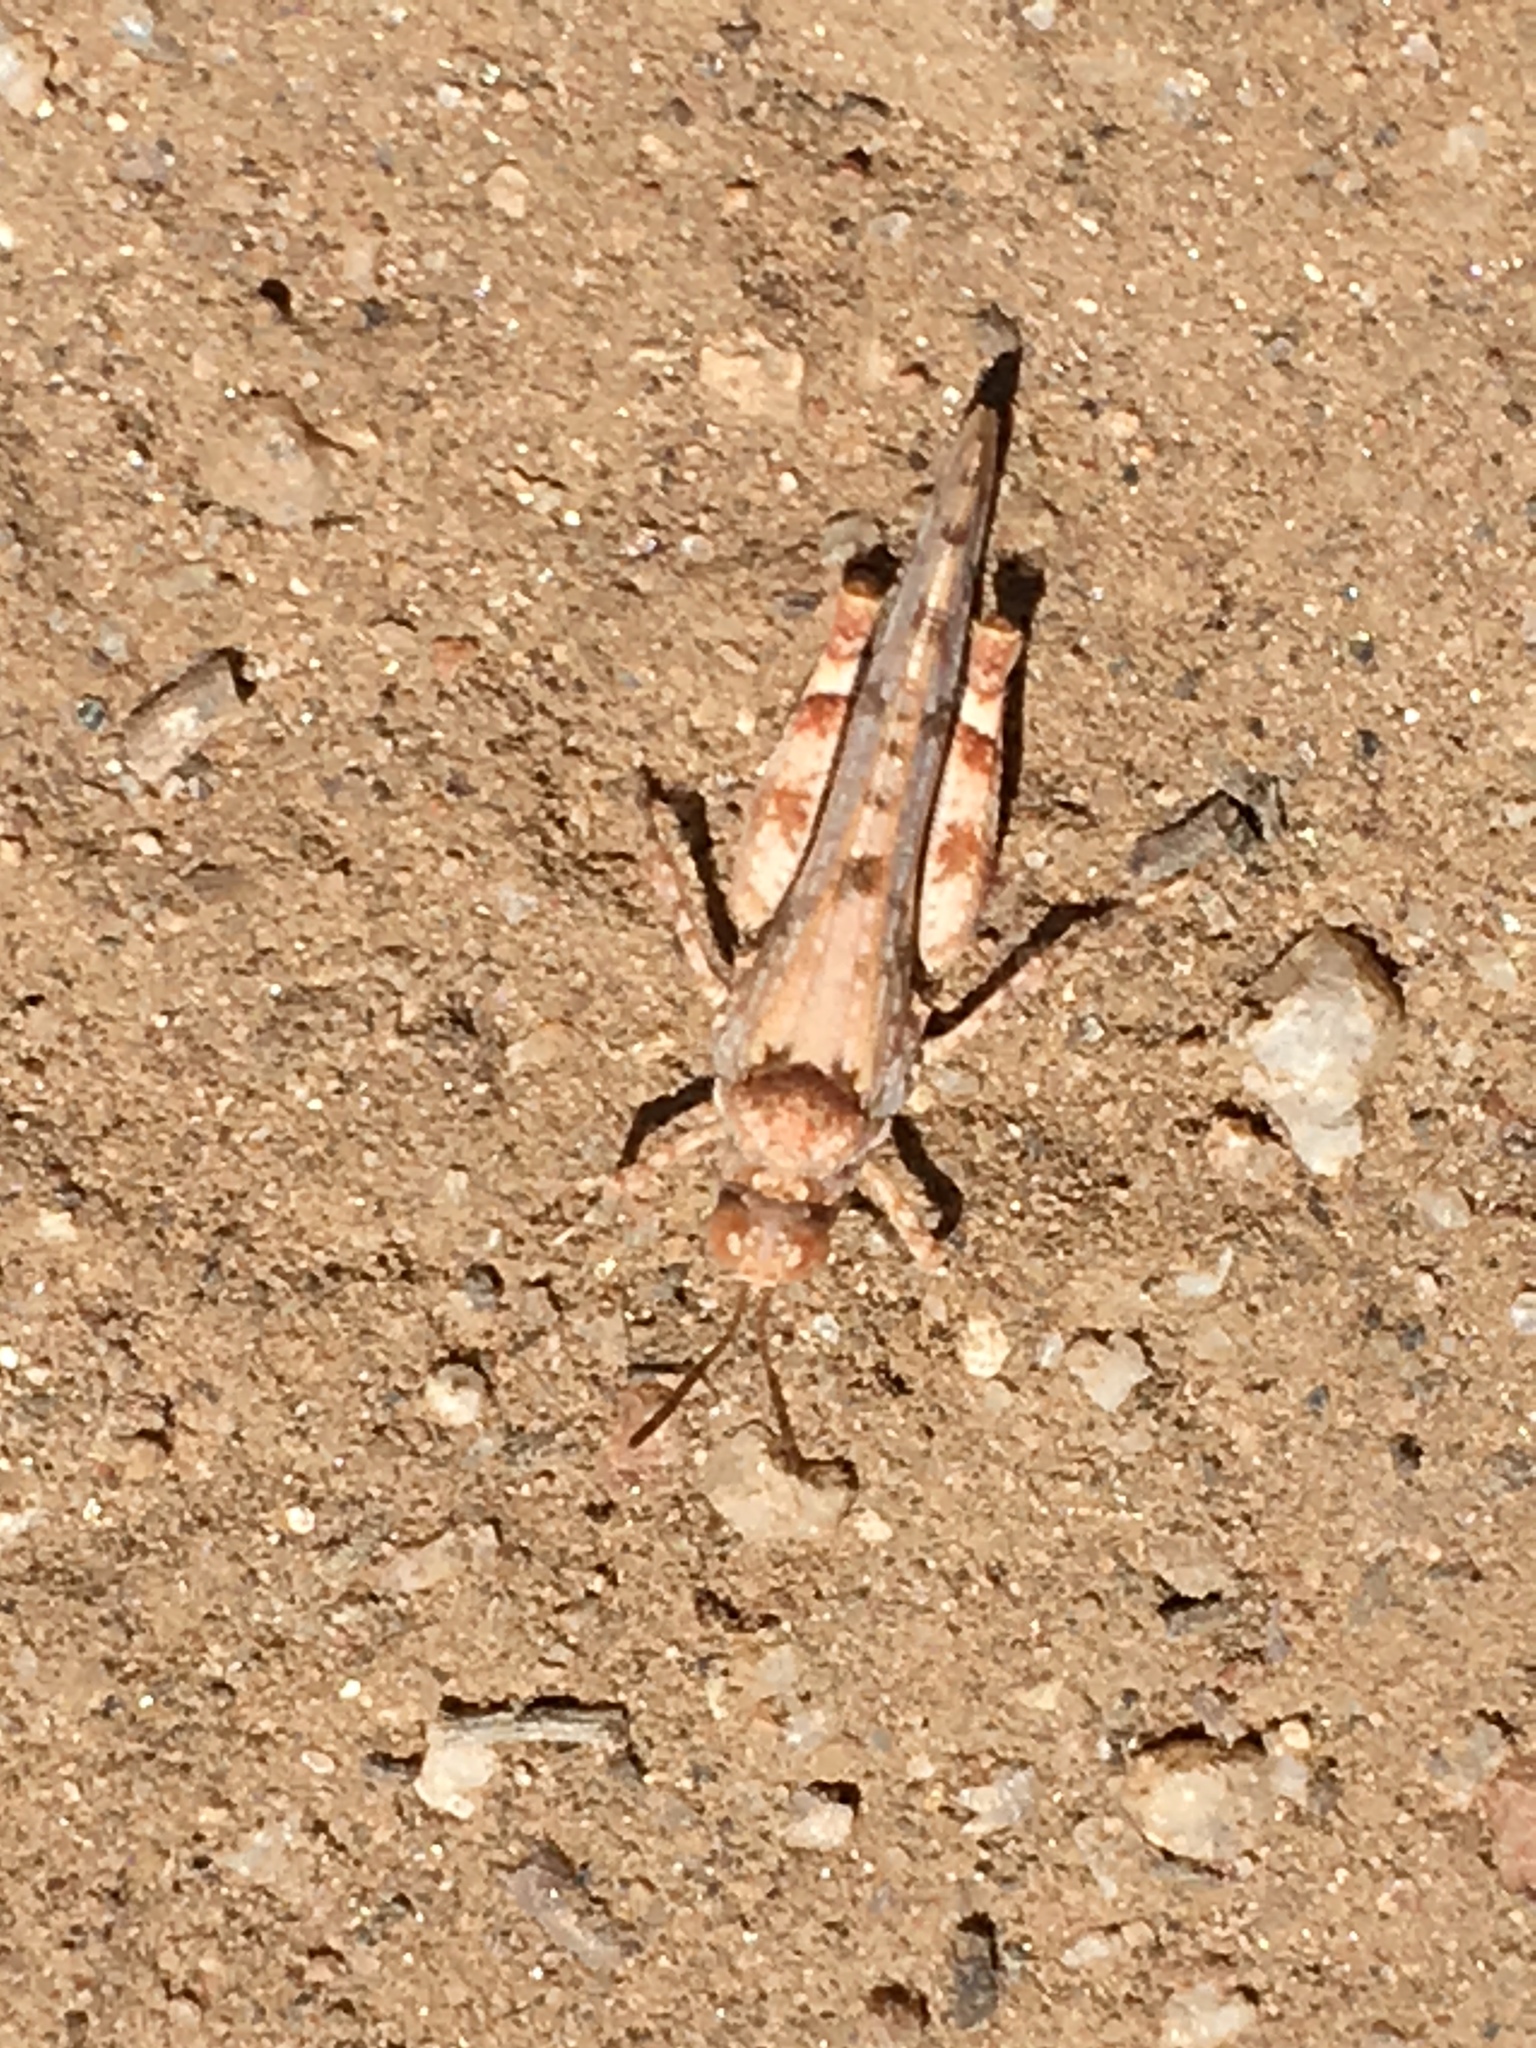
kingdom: Animalia
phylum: Arthropoda
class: Insecta
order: Orthoptera
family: Acrididae
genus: Cibolacris
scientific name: Cibolacris parviceps
